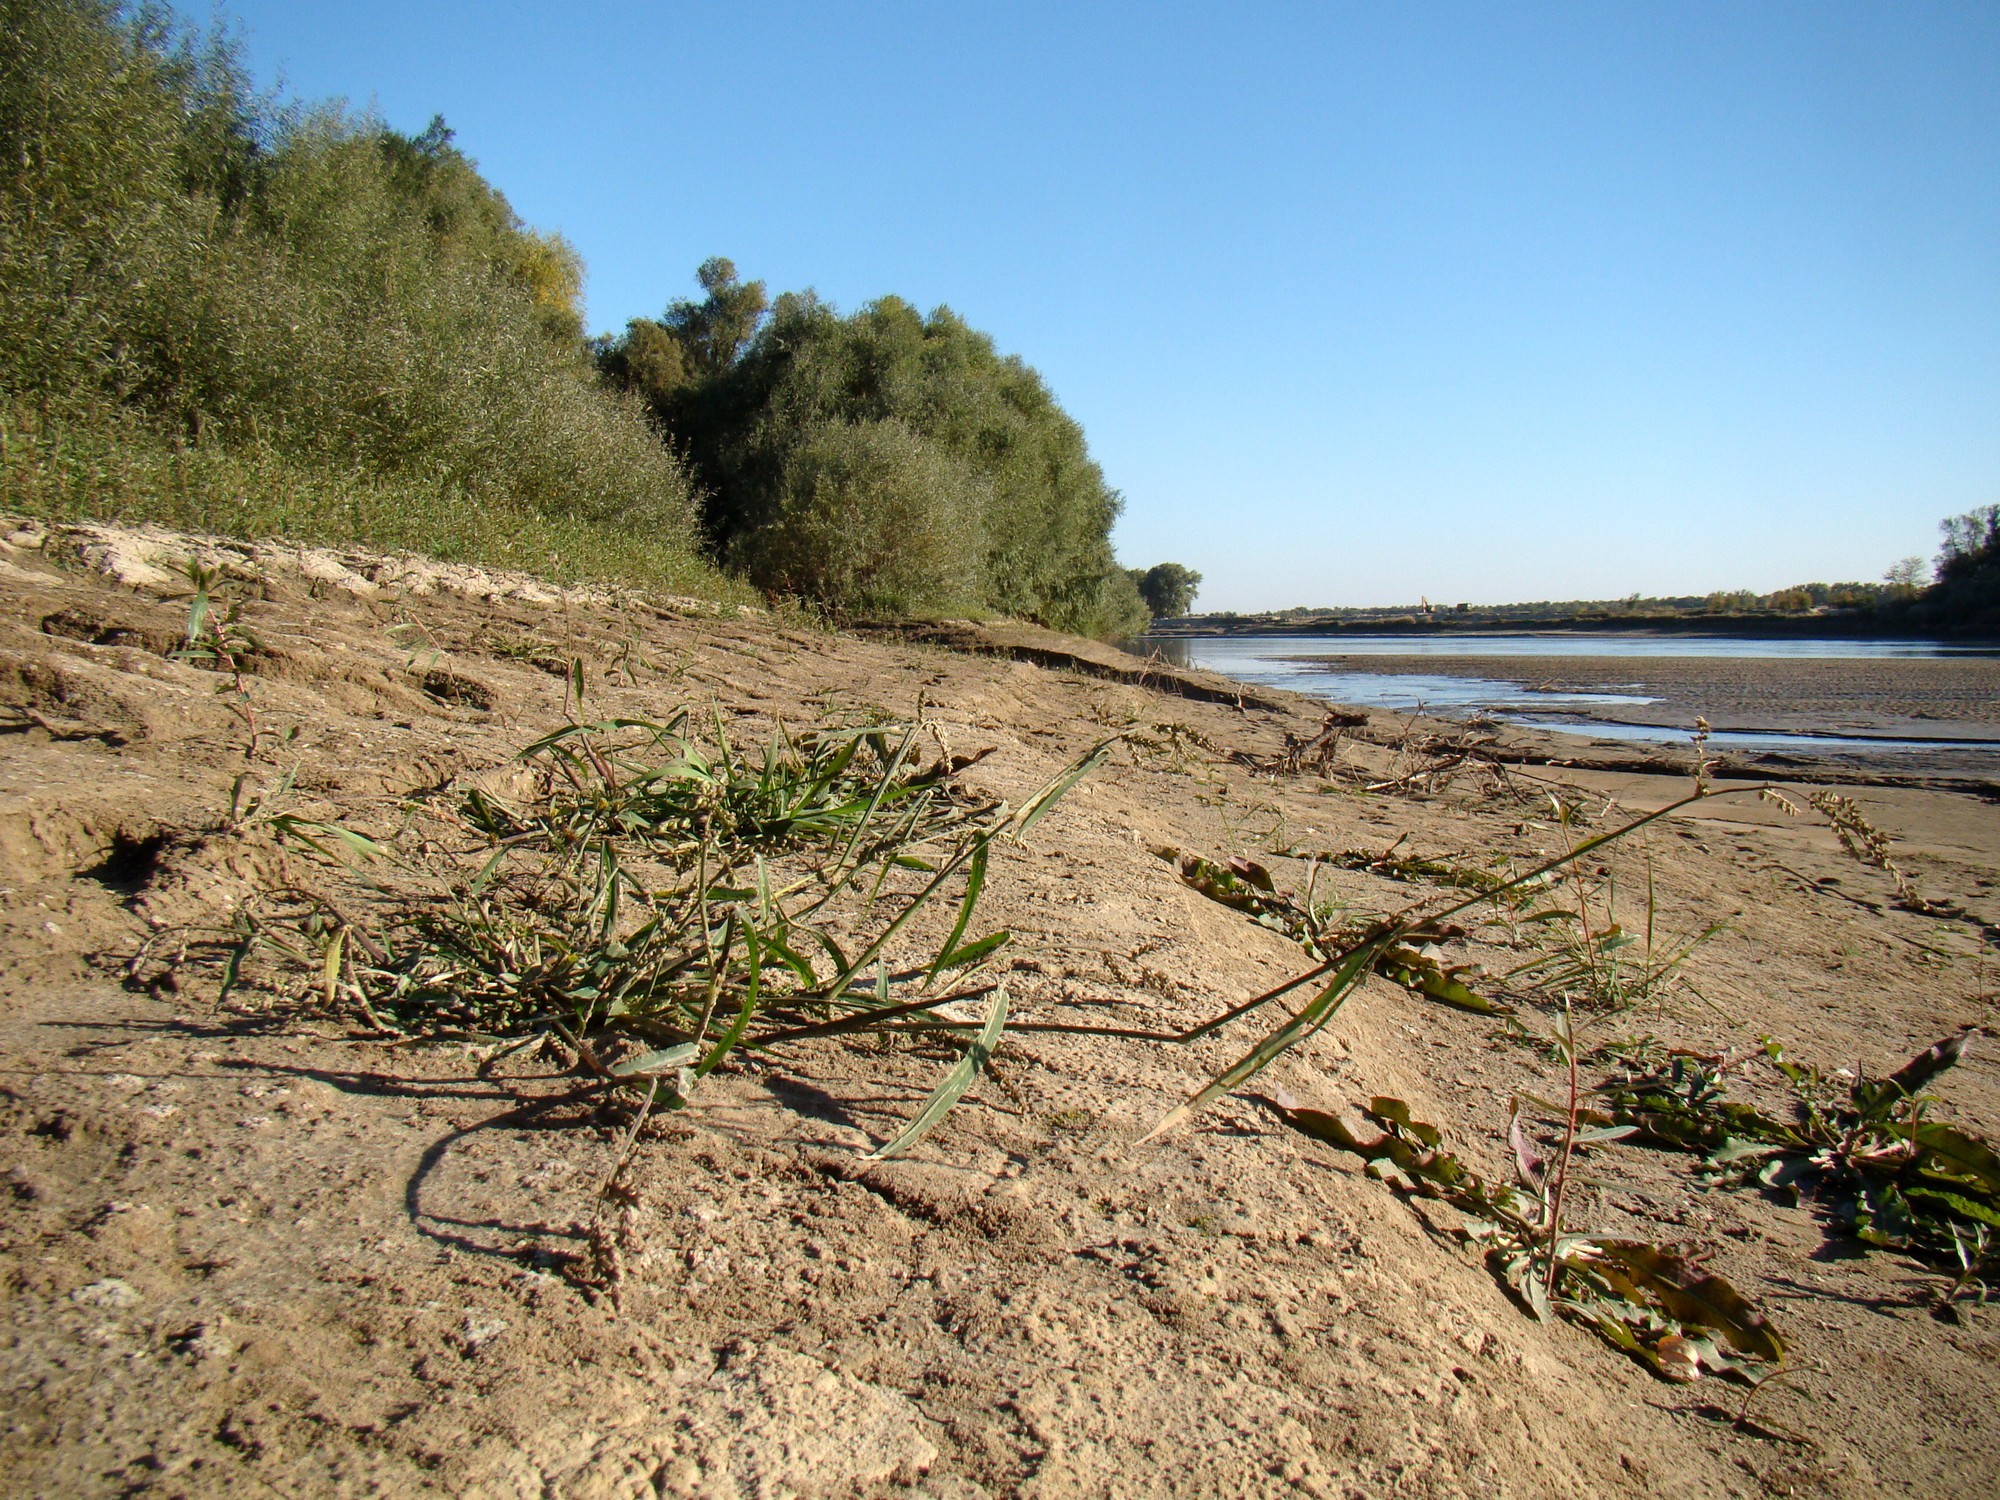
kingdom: Plantae
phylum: Tracheophyta
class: Liliopsida
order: Poales
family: Poaceae
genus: Echinochloa
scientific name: Echinochloa crus-galli
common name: Cockspur
